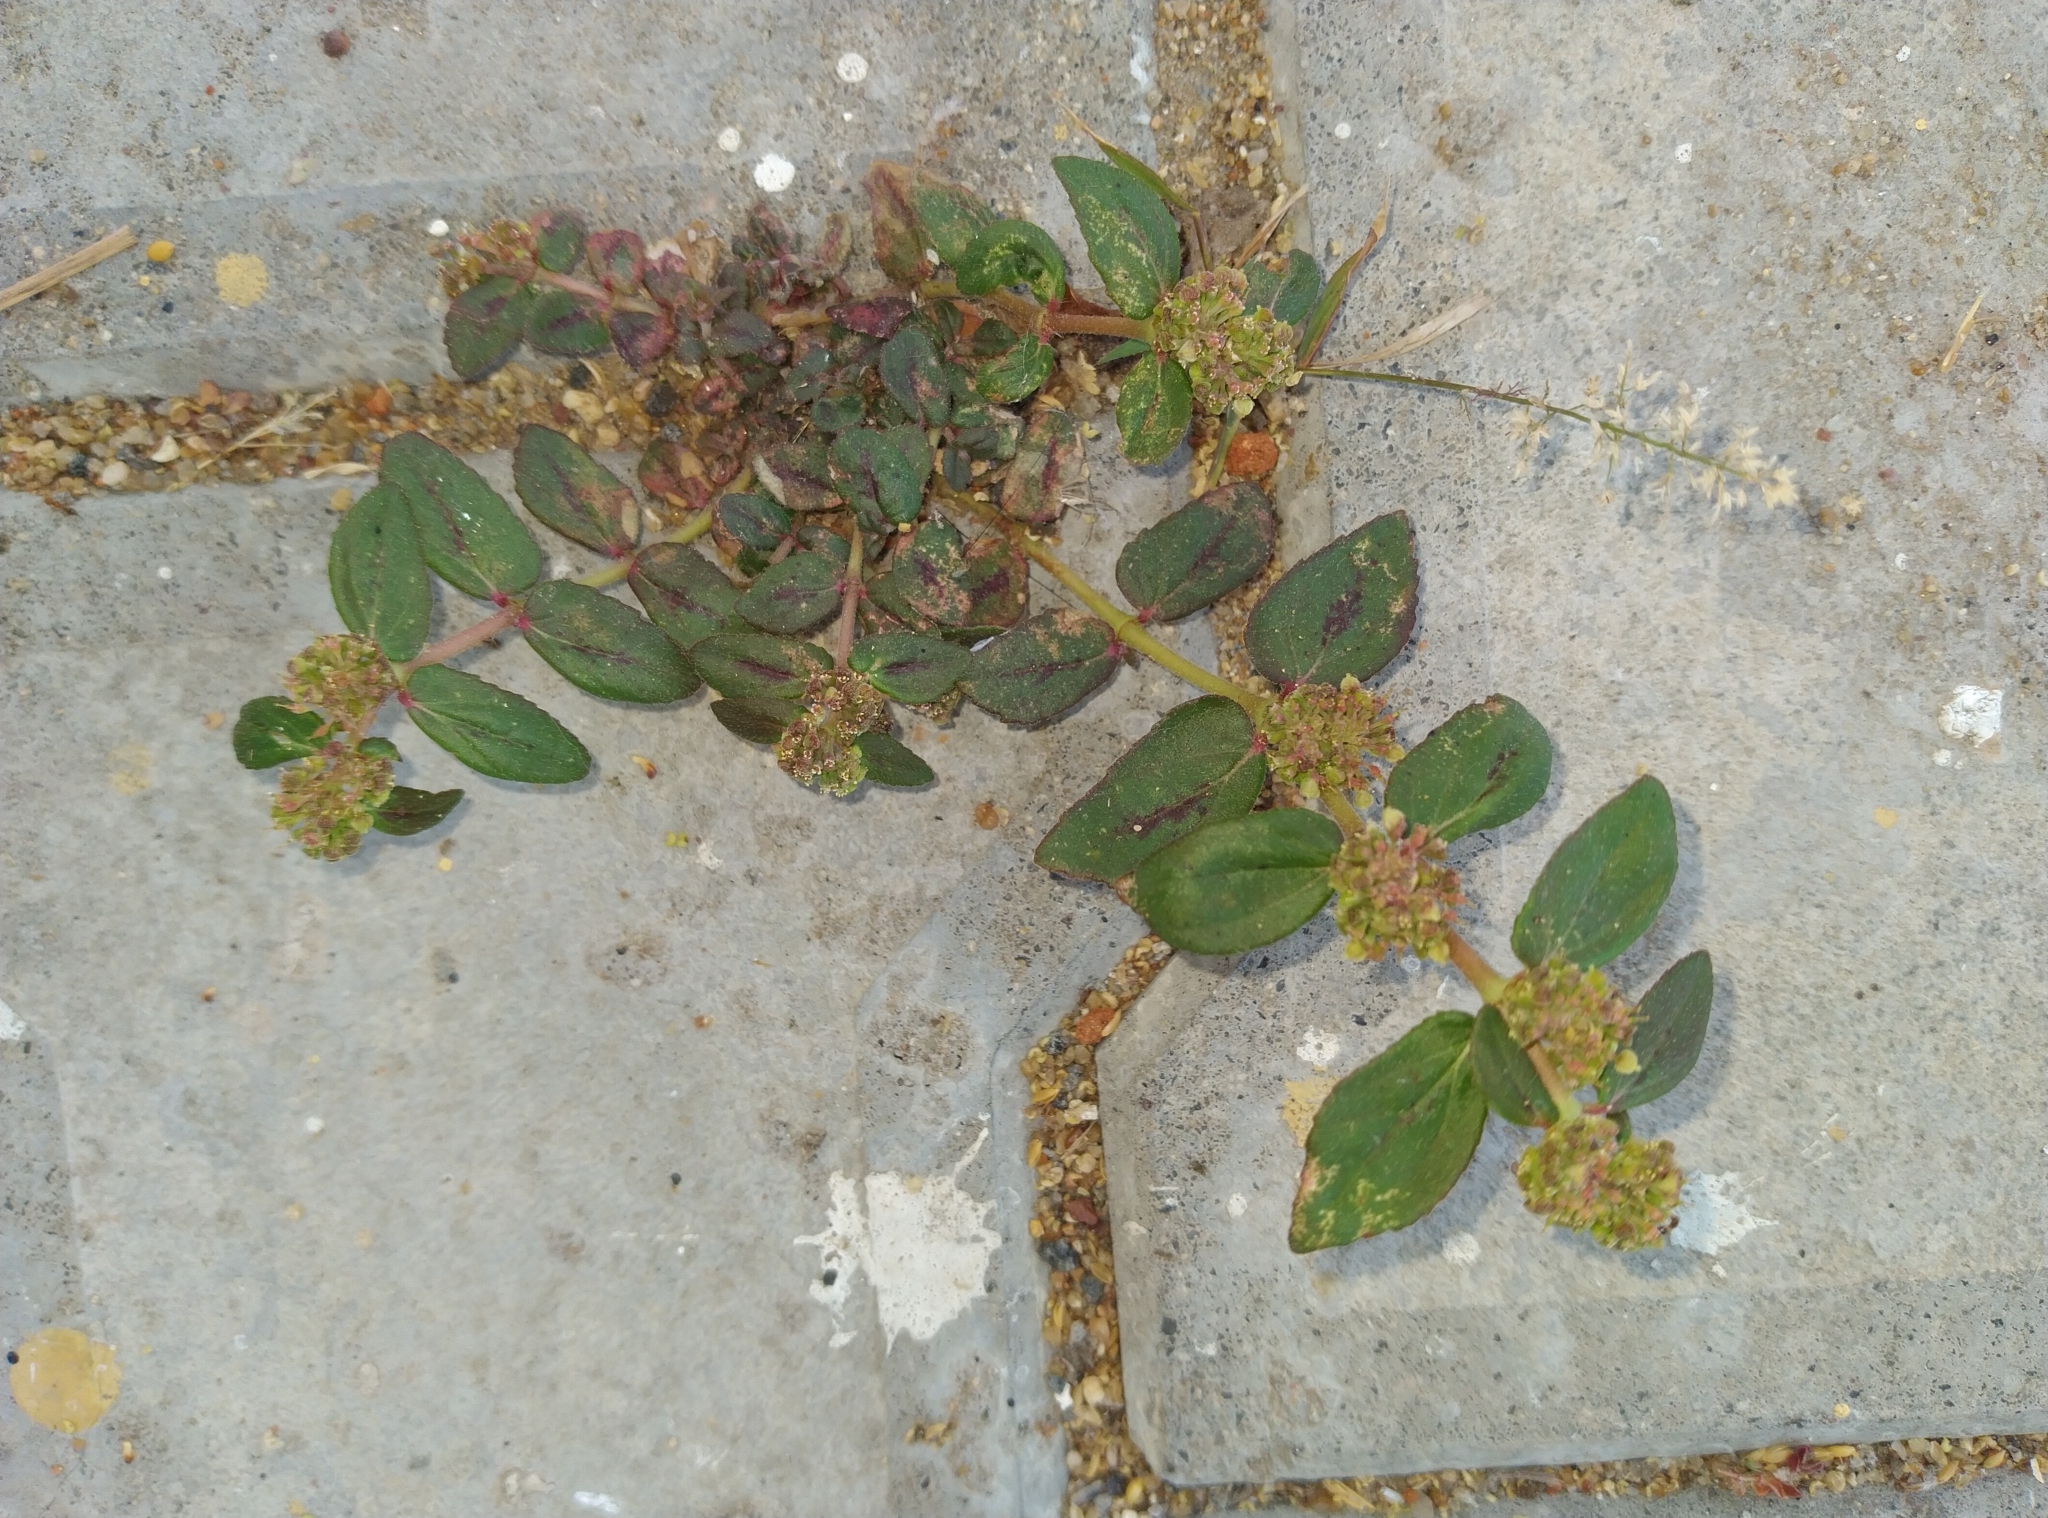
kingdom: Plantae
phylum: Tracheophyta
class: Magnoliopsida
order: Malpighiales
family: Euphorbiaceae
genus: Euphorbia
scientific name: Euphorbia hirta
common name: Pillpod sandmat
